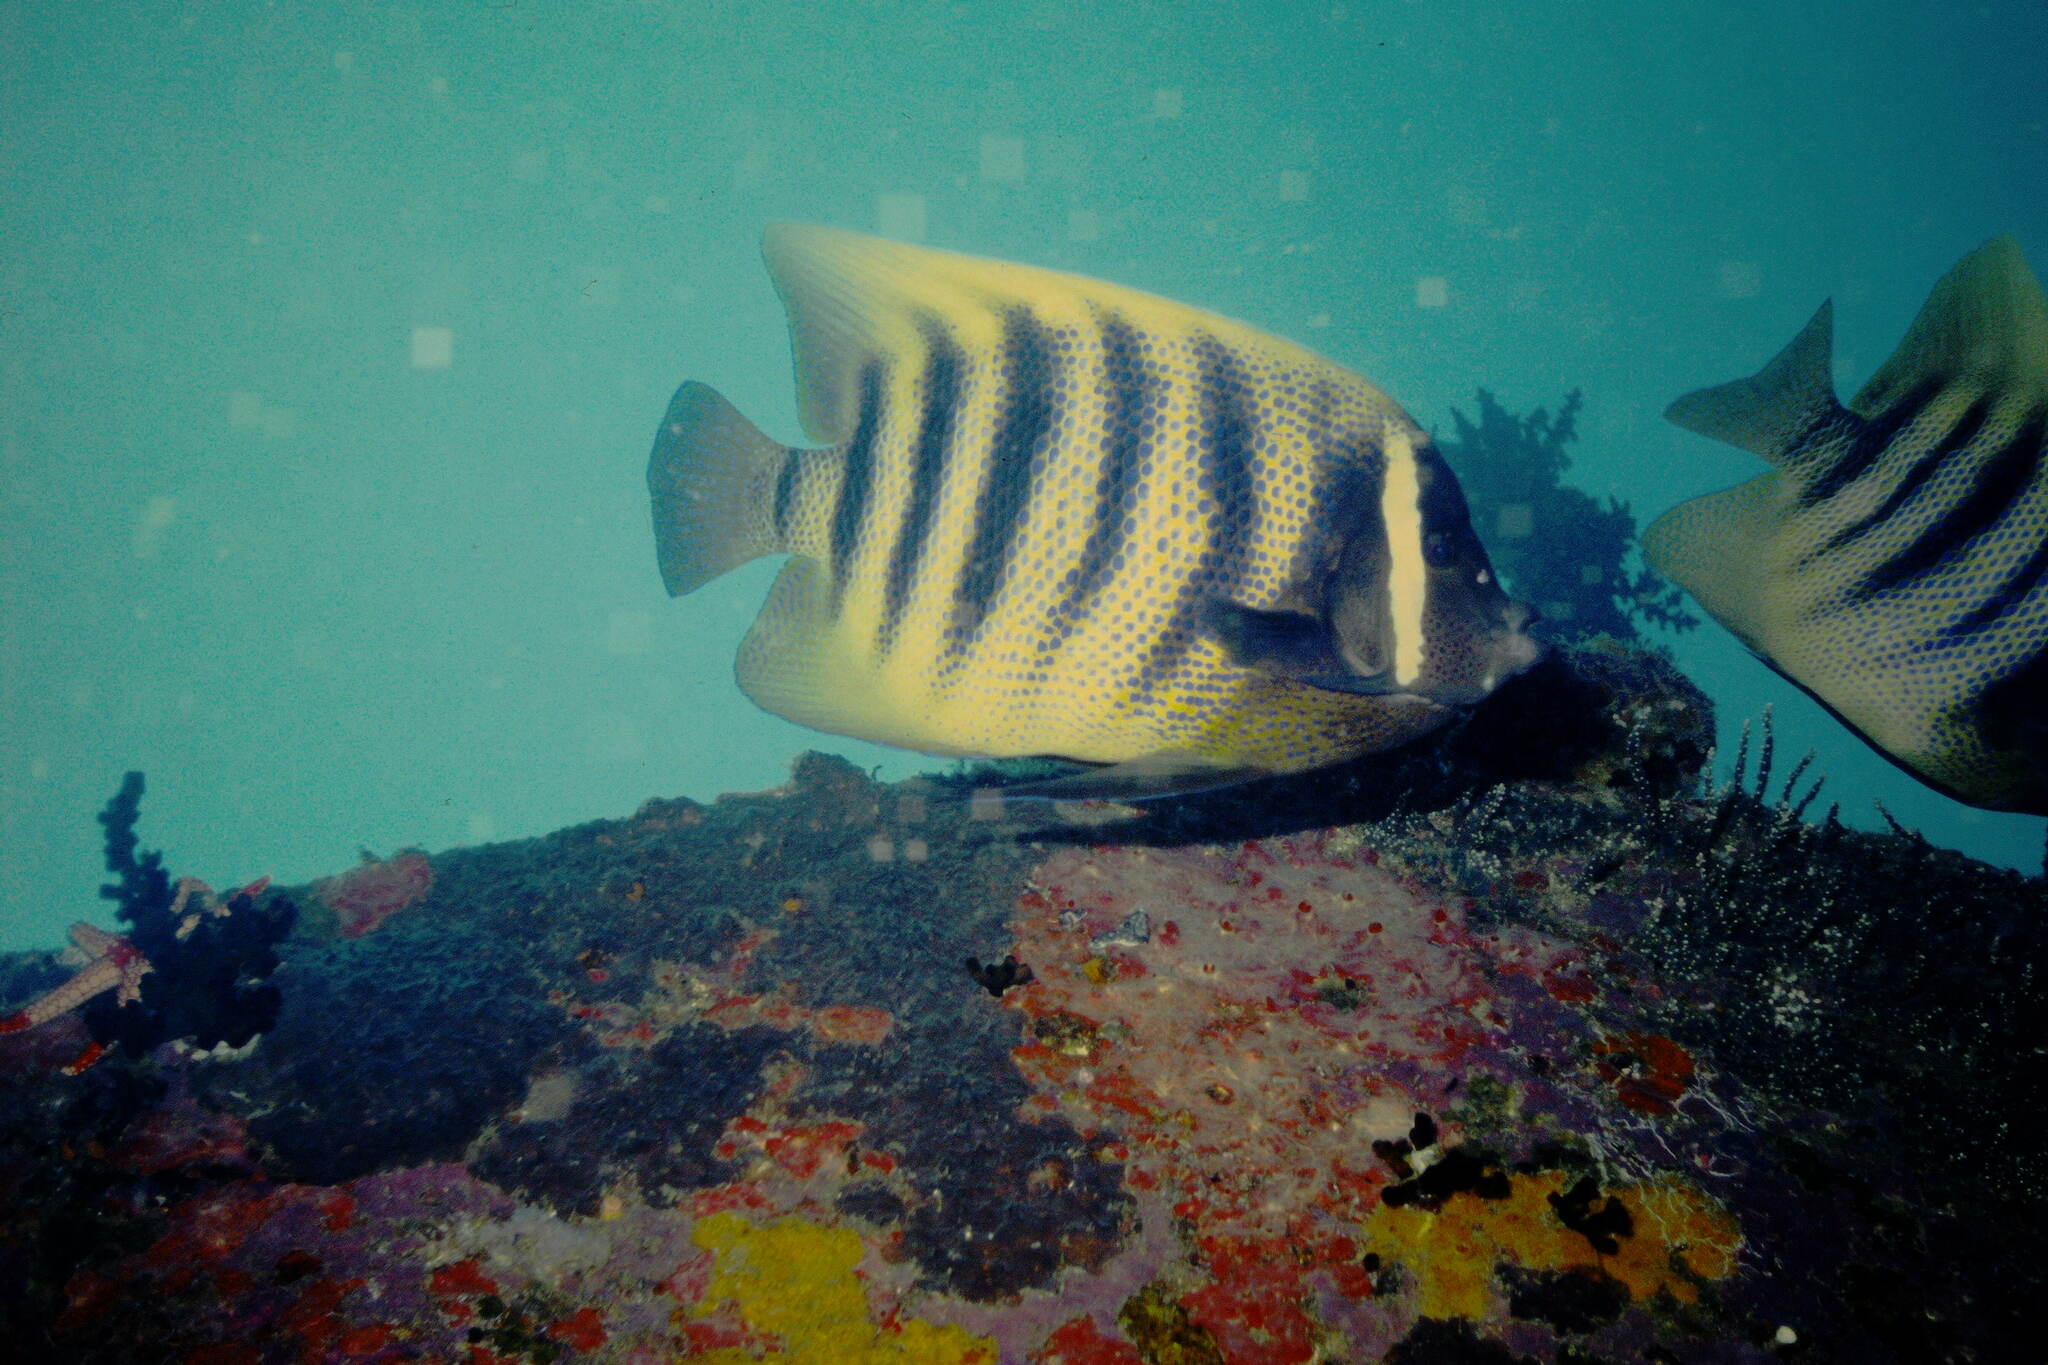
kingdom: Animalia
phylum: Chordata
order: Perciformes
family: Pomacanthidae
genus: Pomacanthus
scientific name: Pomacanthus sexstriatus
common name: Six-banded angelfish
